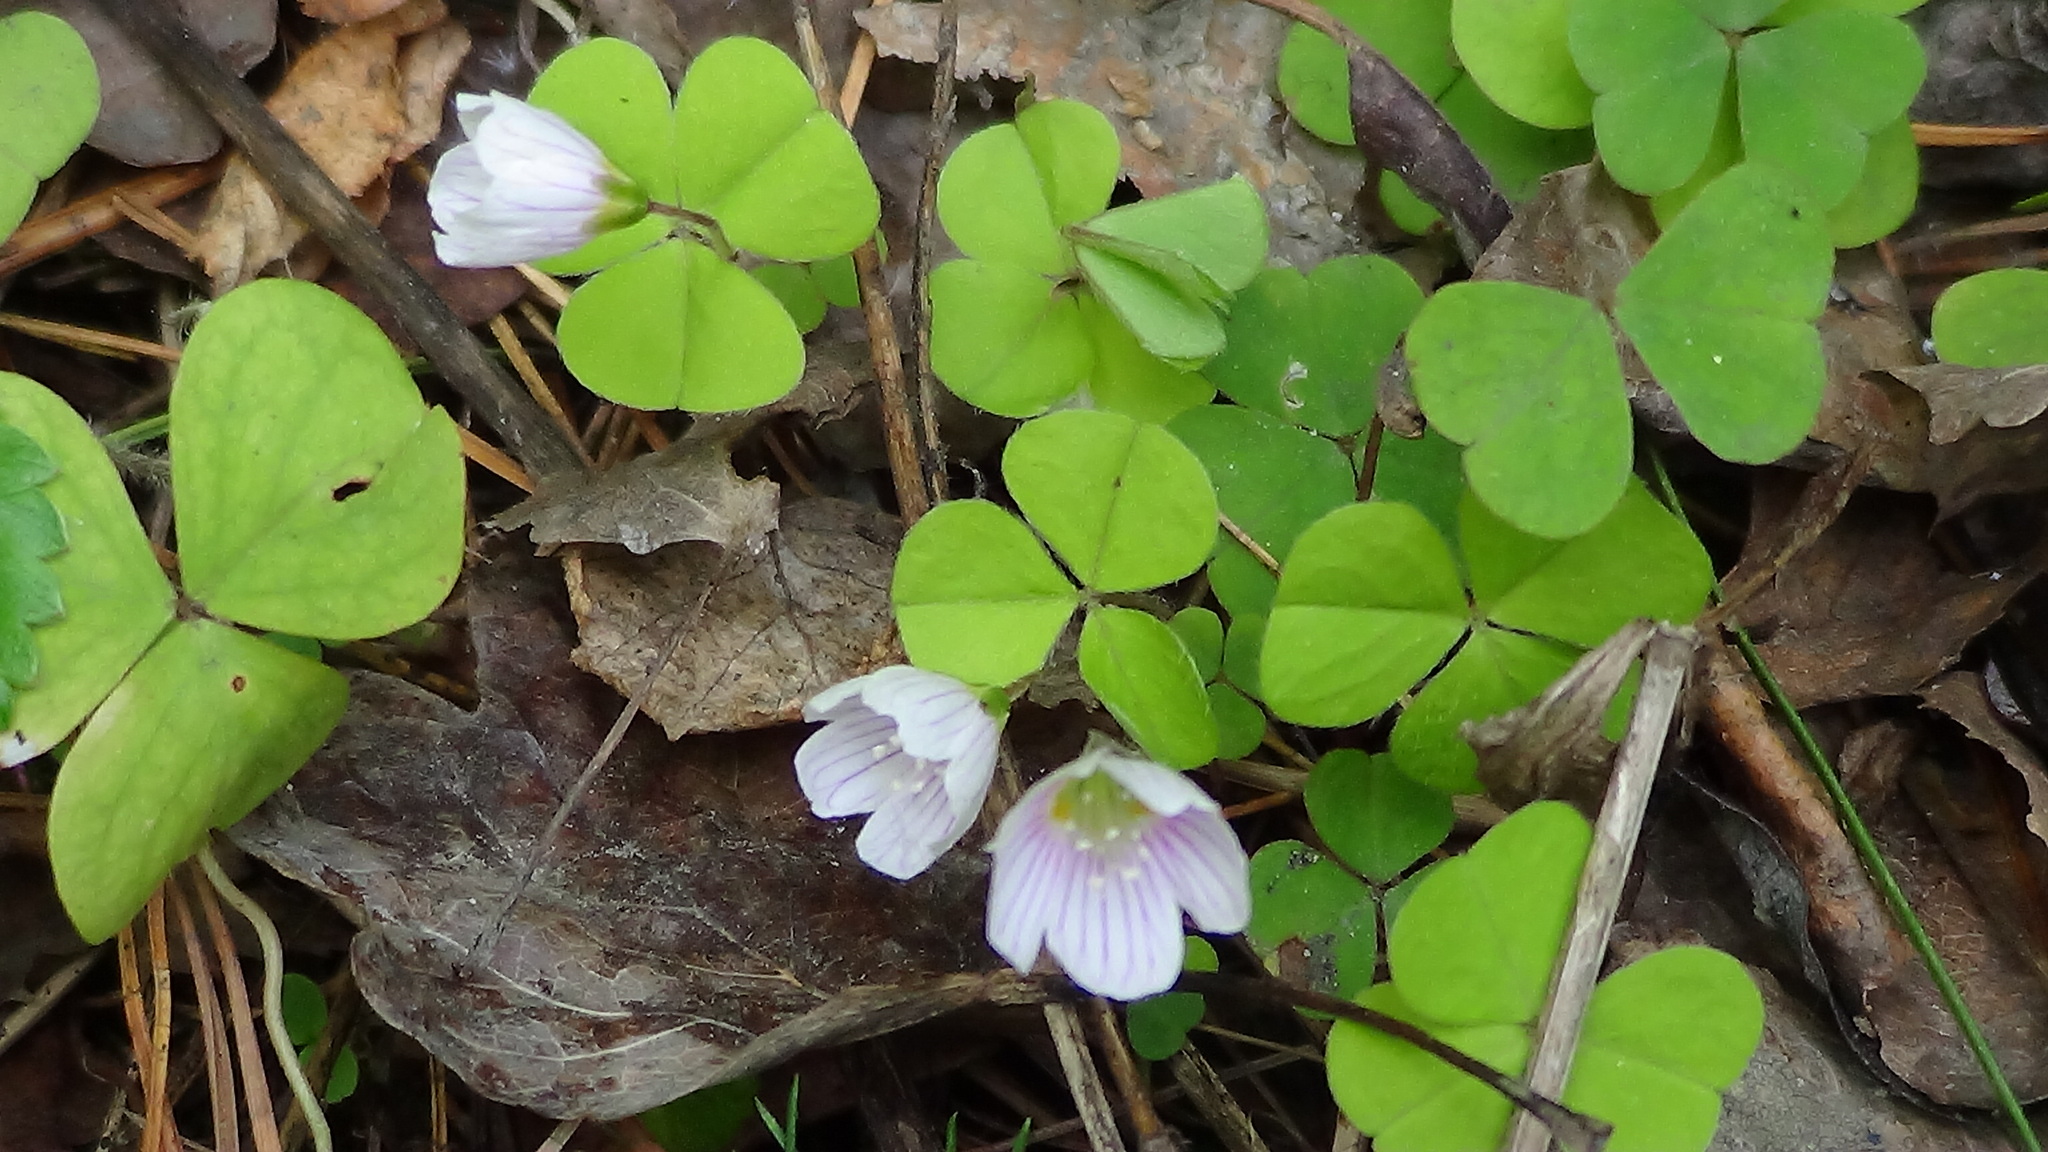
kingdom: Plantae
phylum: Tracheophyta
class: Magnoliopsida
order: Oxalidales
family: Oxalidaceae
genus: Oxalis
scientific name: Oxalis acetosella
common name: Wood-sorrel
